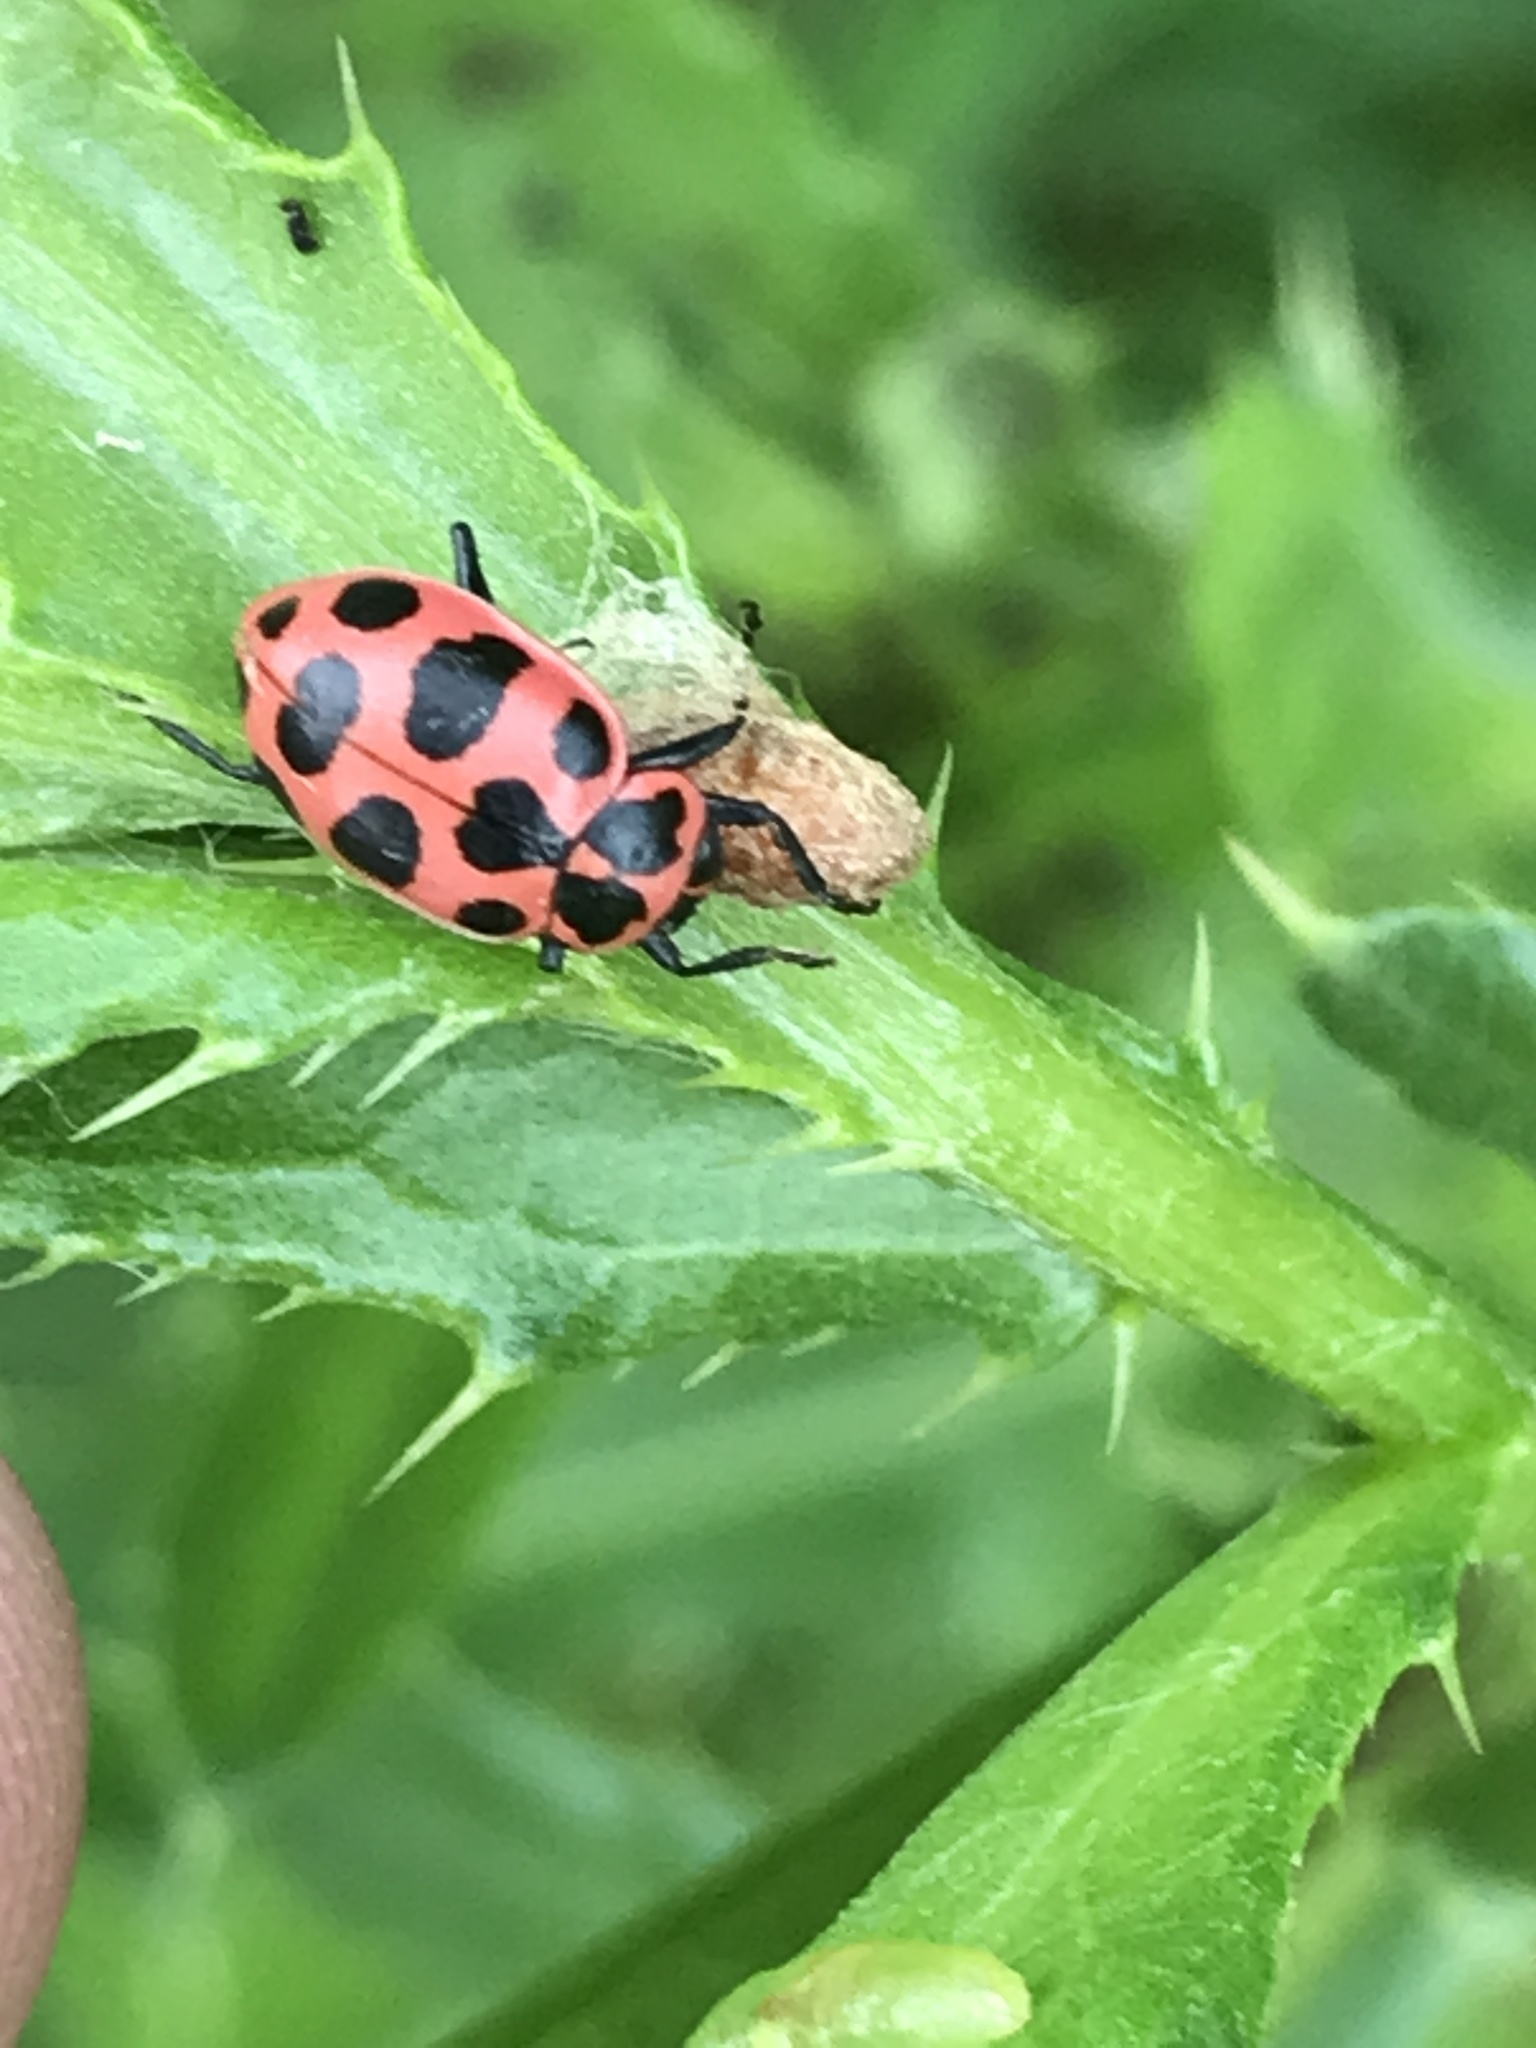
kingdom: Animalia
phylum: Arthropoda
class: Insecta
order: Coleoptera
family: Coccinellidae
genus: Coleomegilla
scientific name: Coleomegilla maculata
